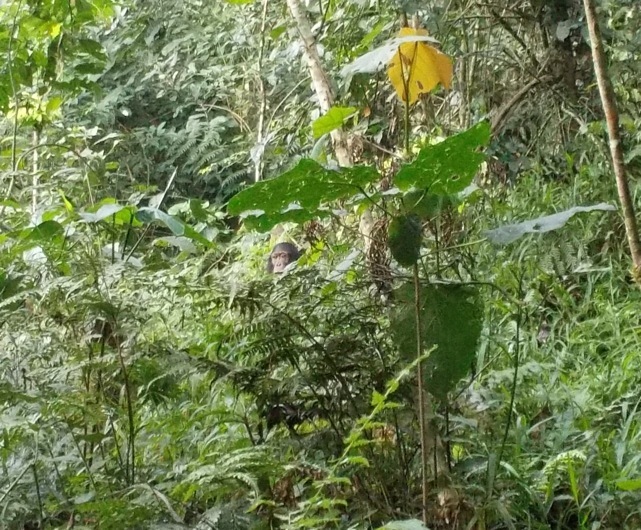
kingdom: Animalia
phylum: Chordata
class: Mammalia
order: Primates
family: Hominidae
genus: Pan
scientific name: Pan troglodytes
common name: Chimpanzee
